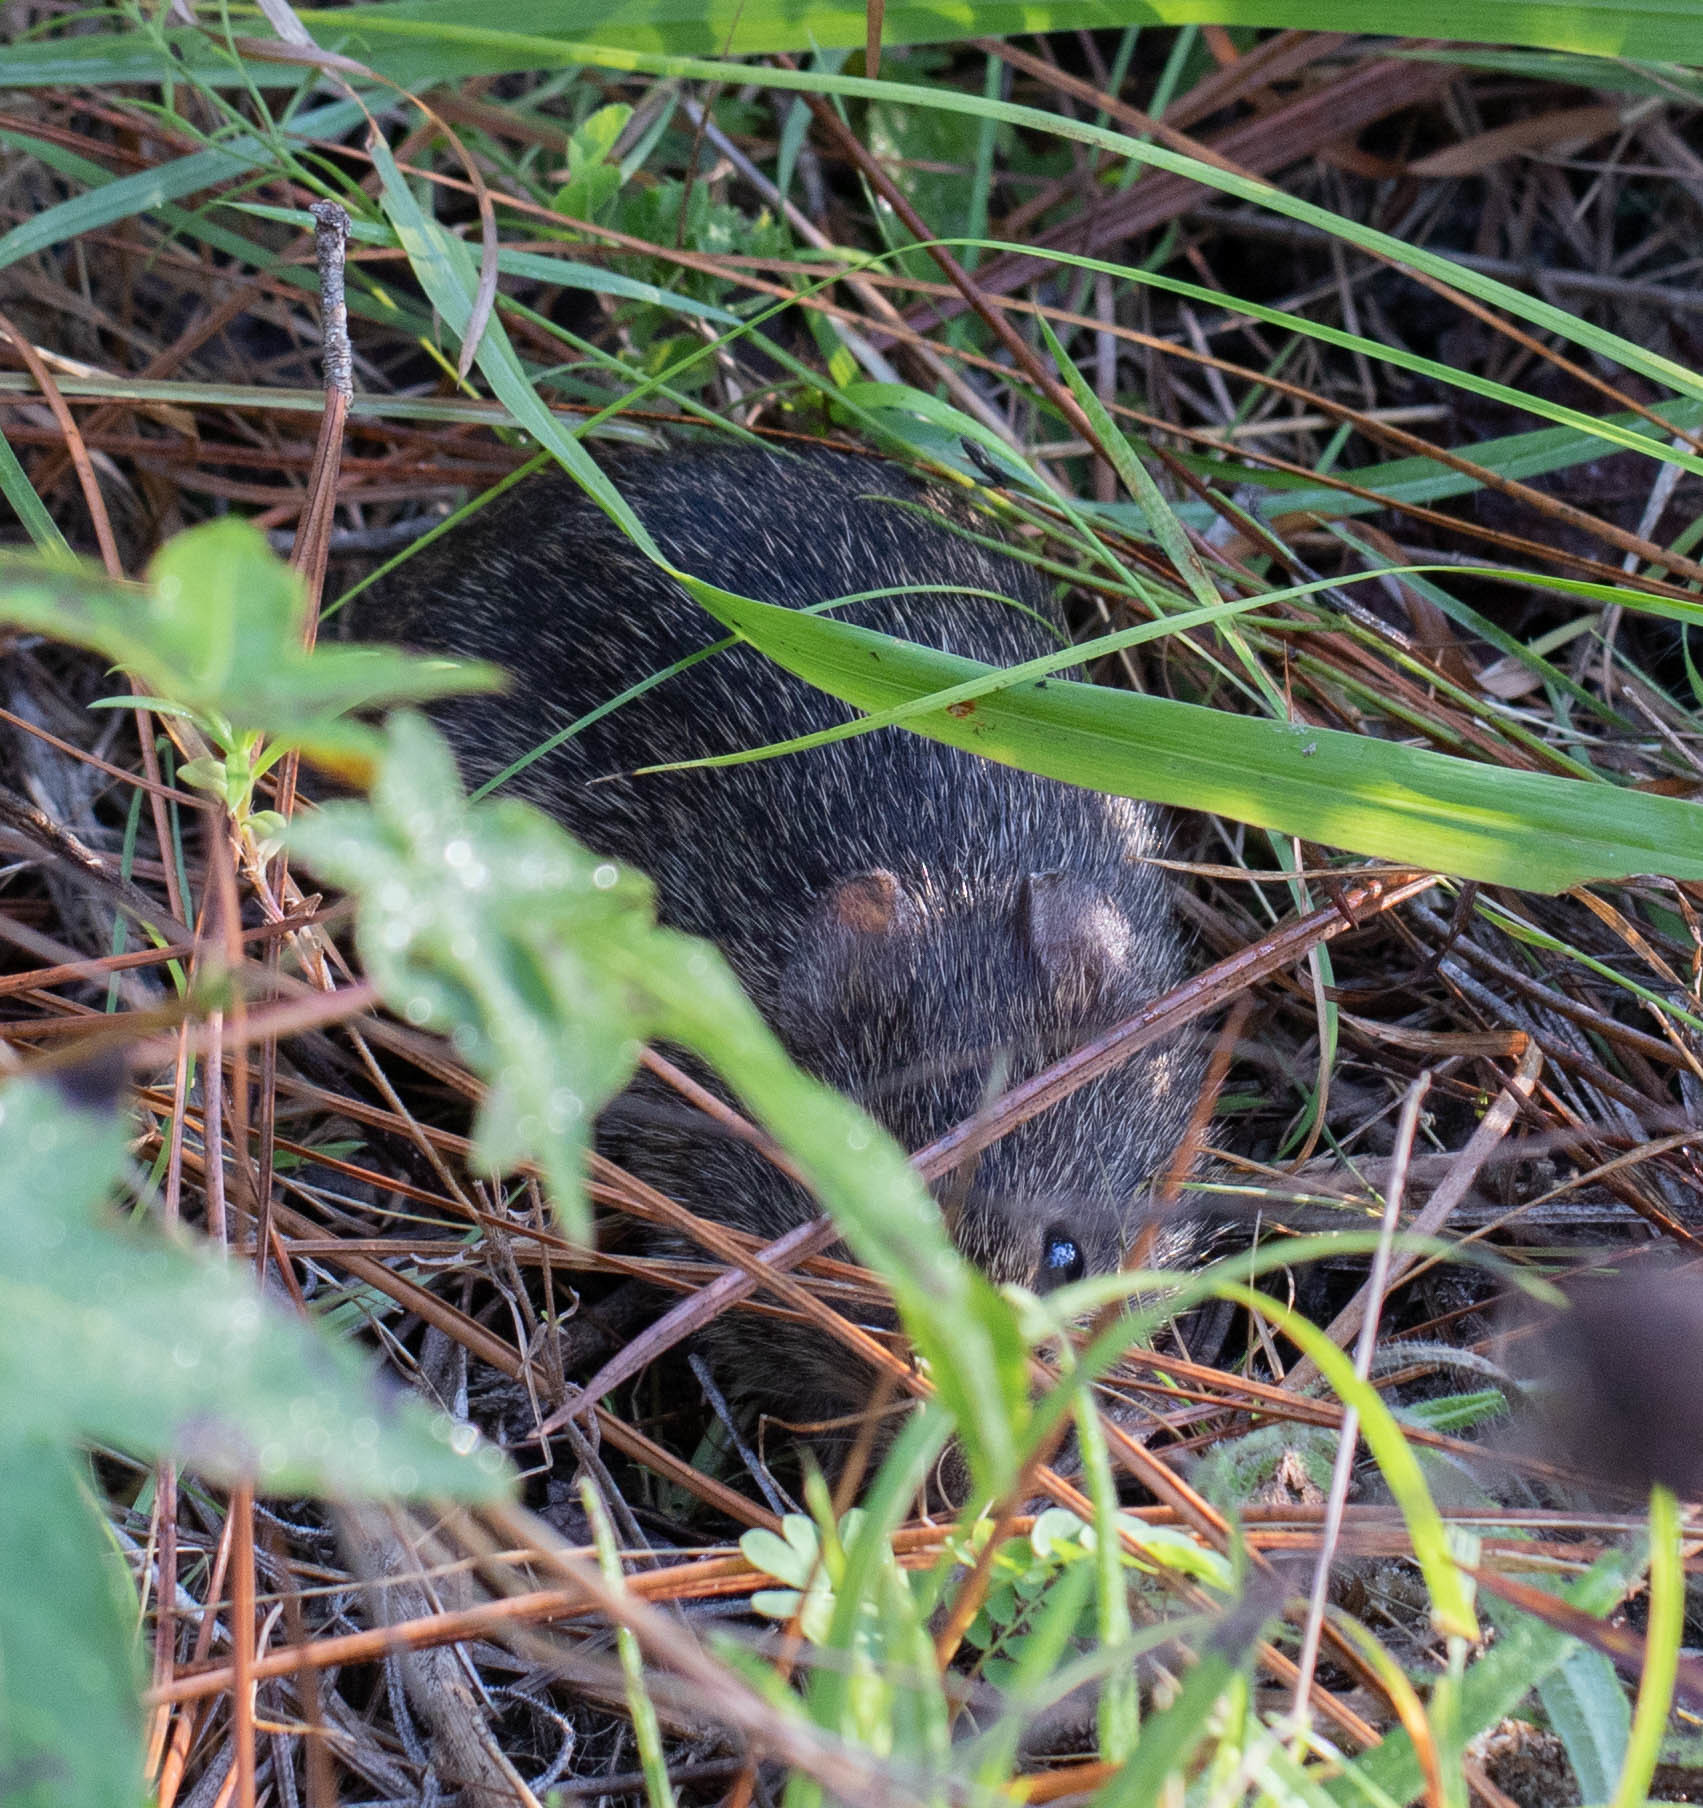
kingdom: Animalia
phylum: Chordata
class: Mammalia
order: Rodentia
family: Cricetidae
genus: Sigmodon
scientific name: Sigmodon hispidus
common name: Hispid cotton rat
